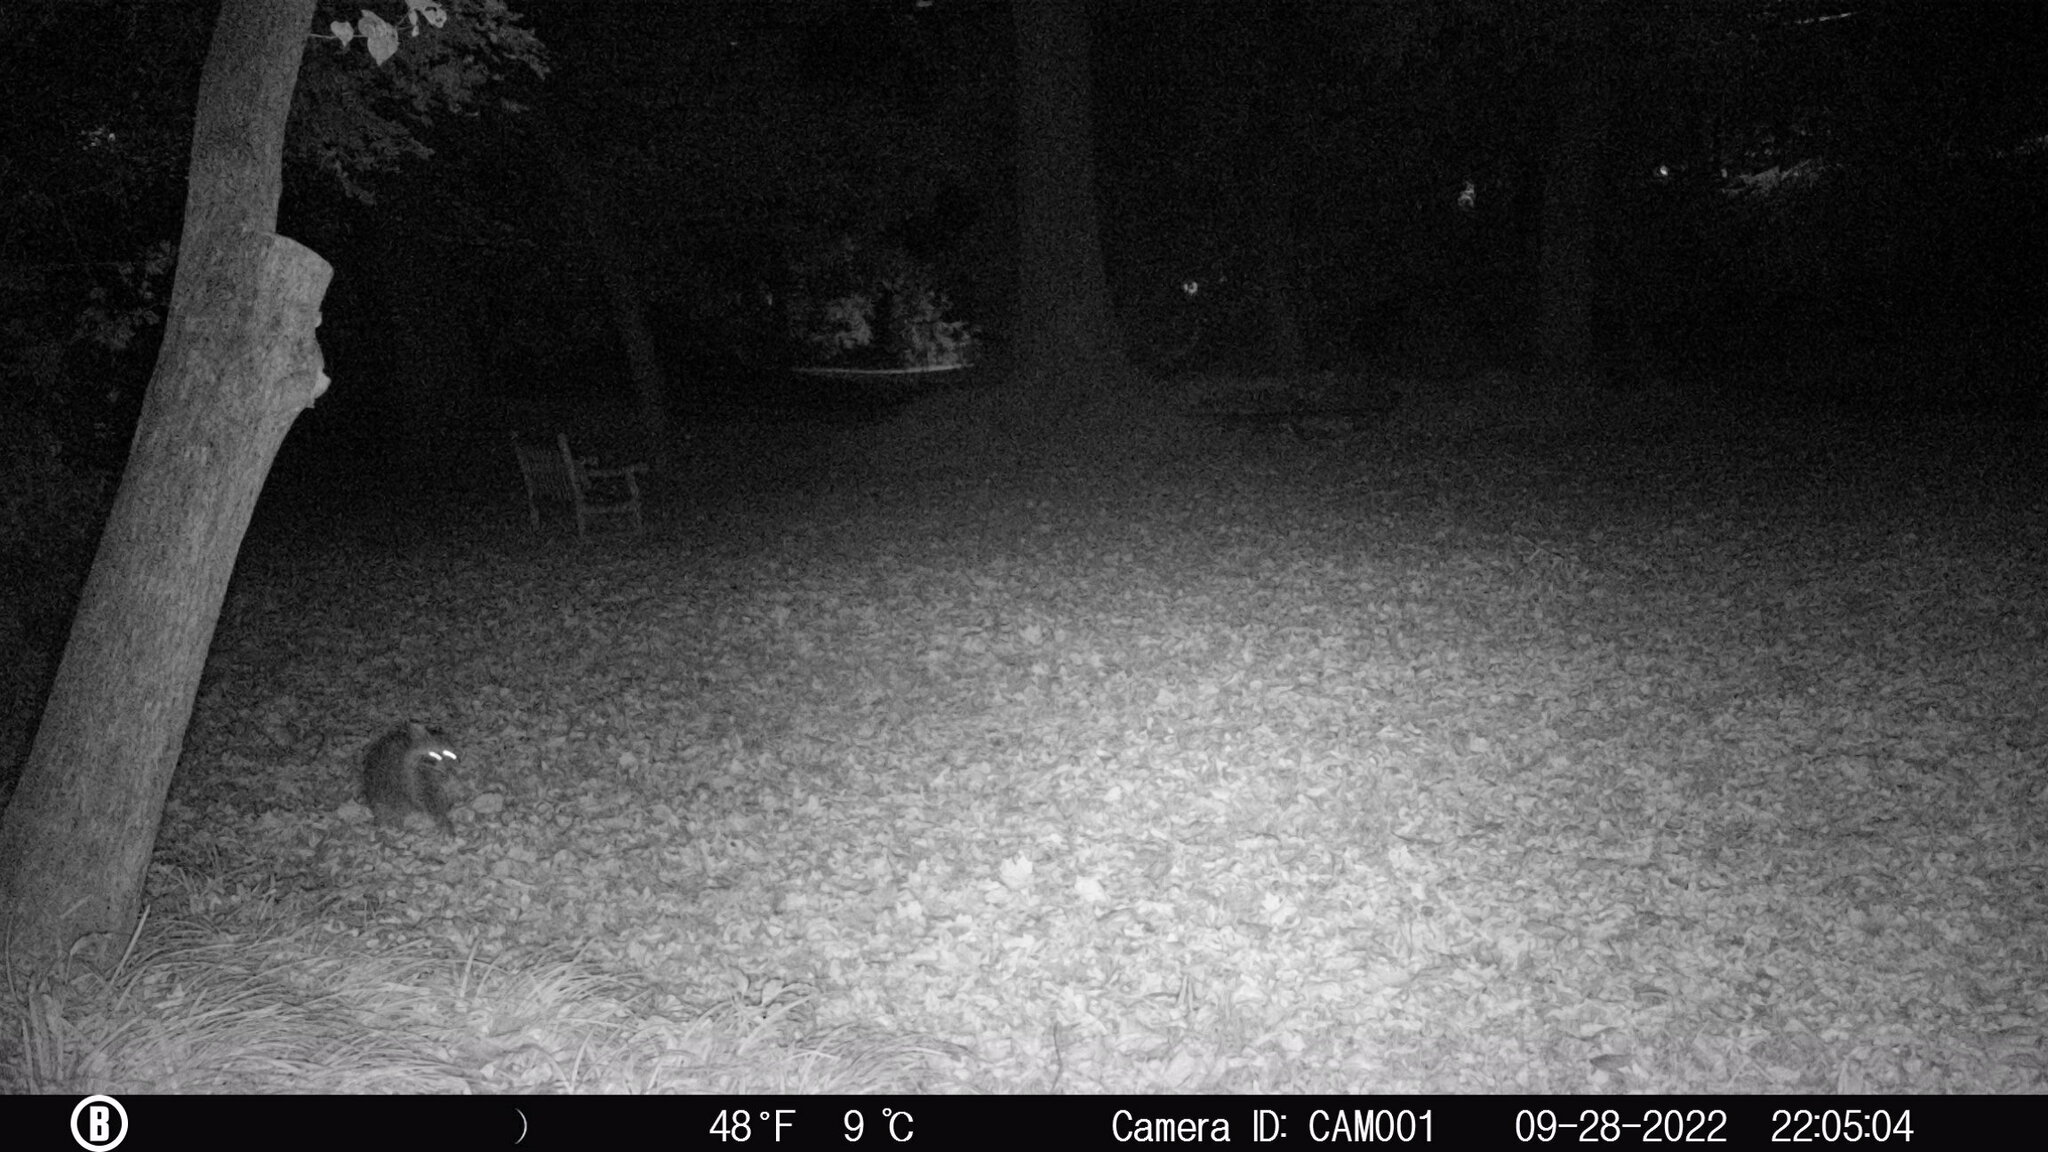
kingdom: Animalia
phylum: Chordata
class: Mammalia
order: Carnivora
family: Procyonidae
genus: Procyon
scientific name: Procyon lotor
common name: Raccoon
